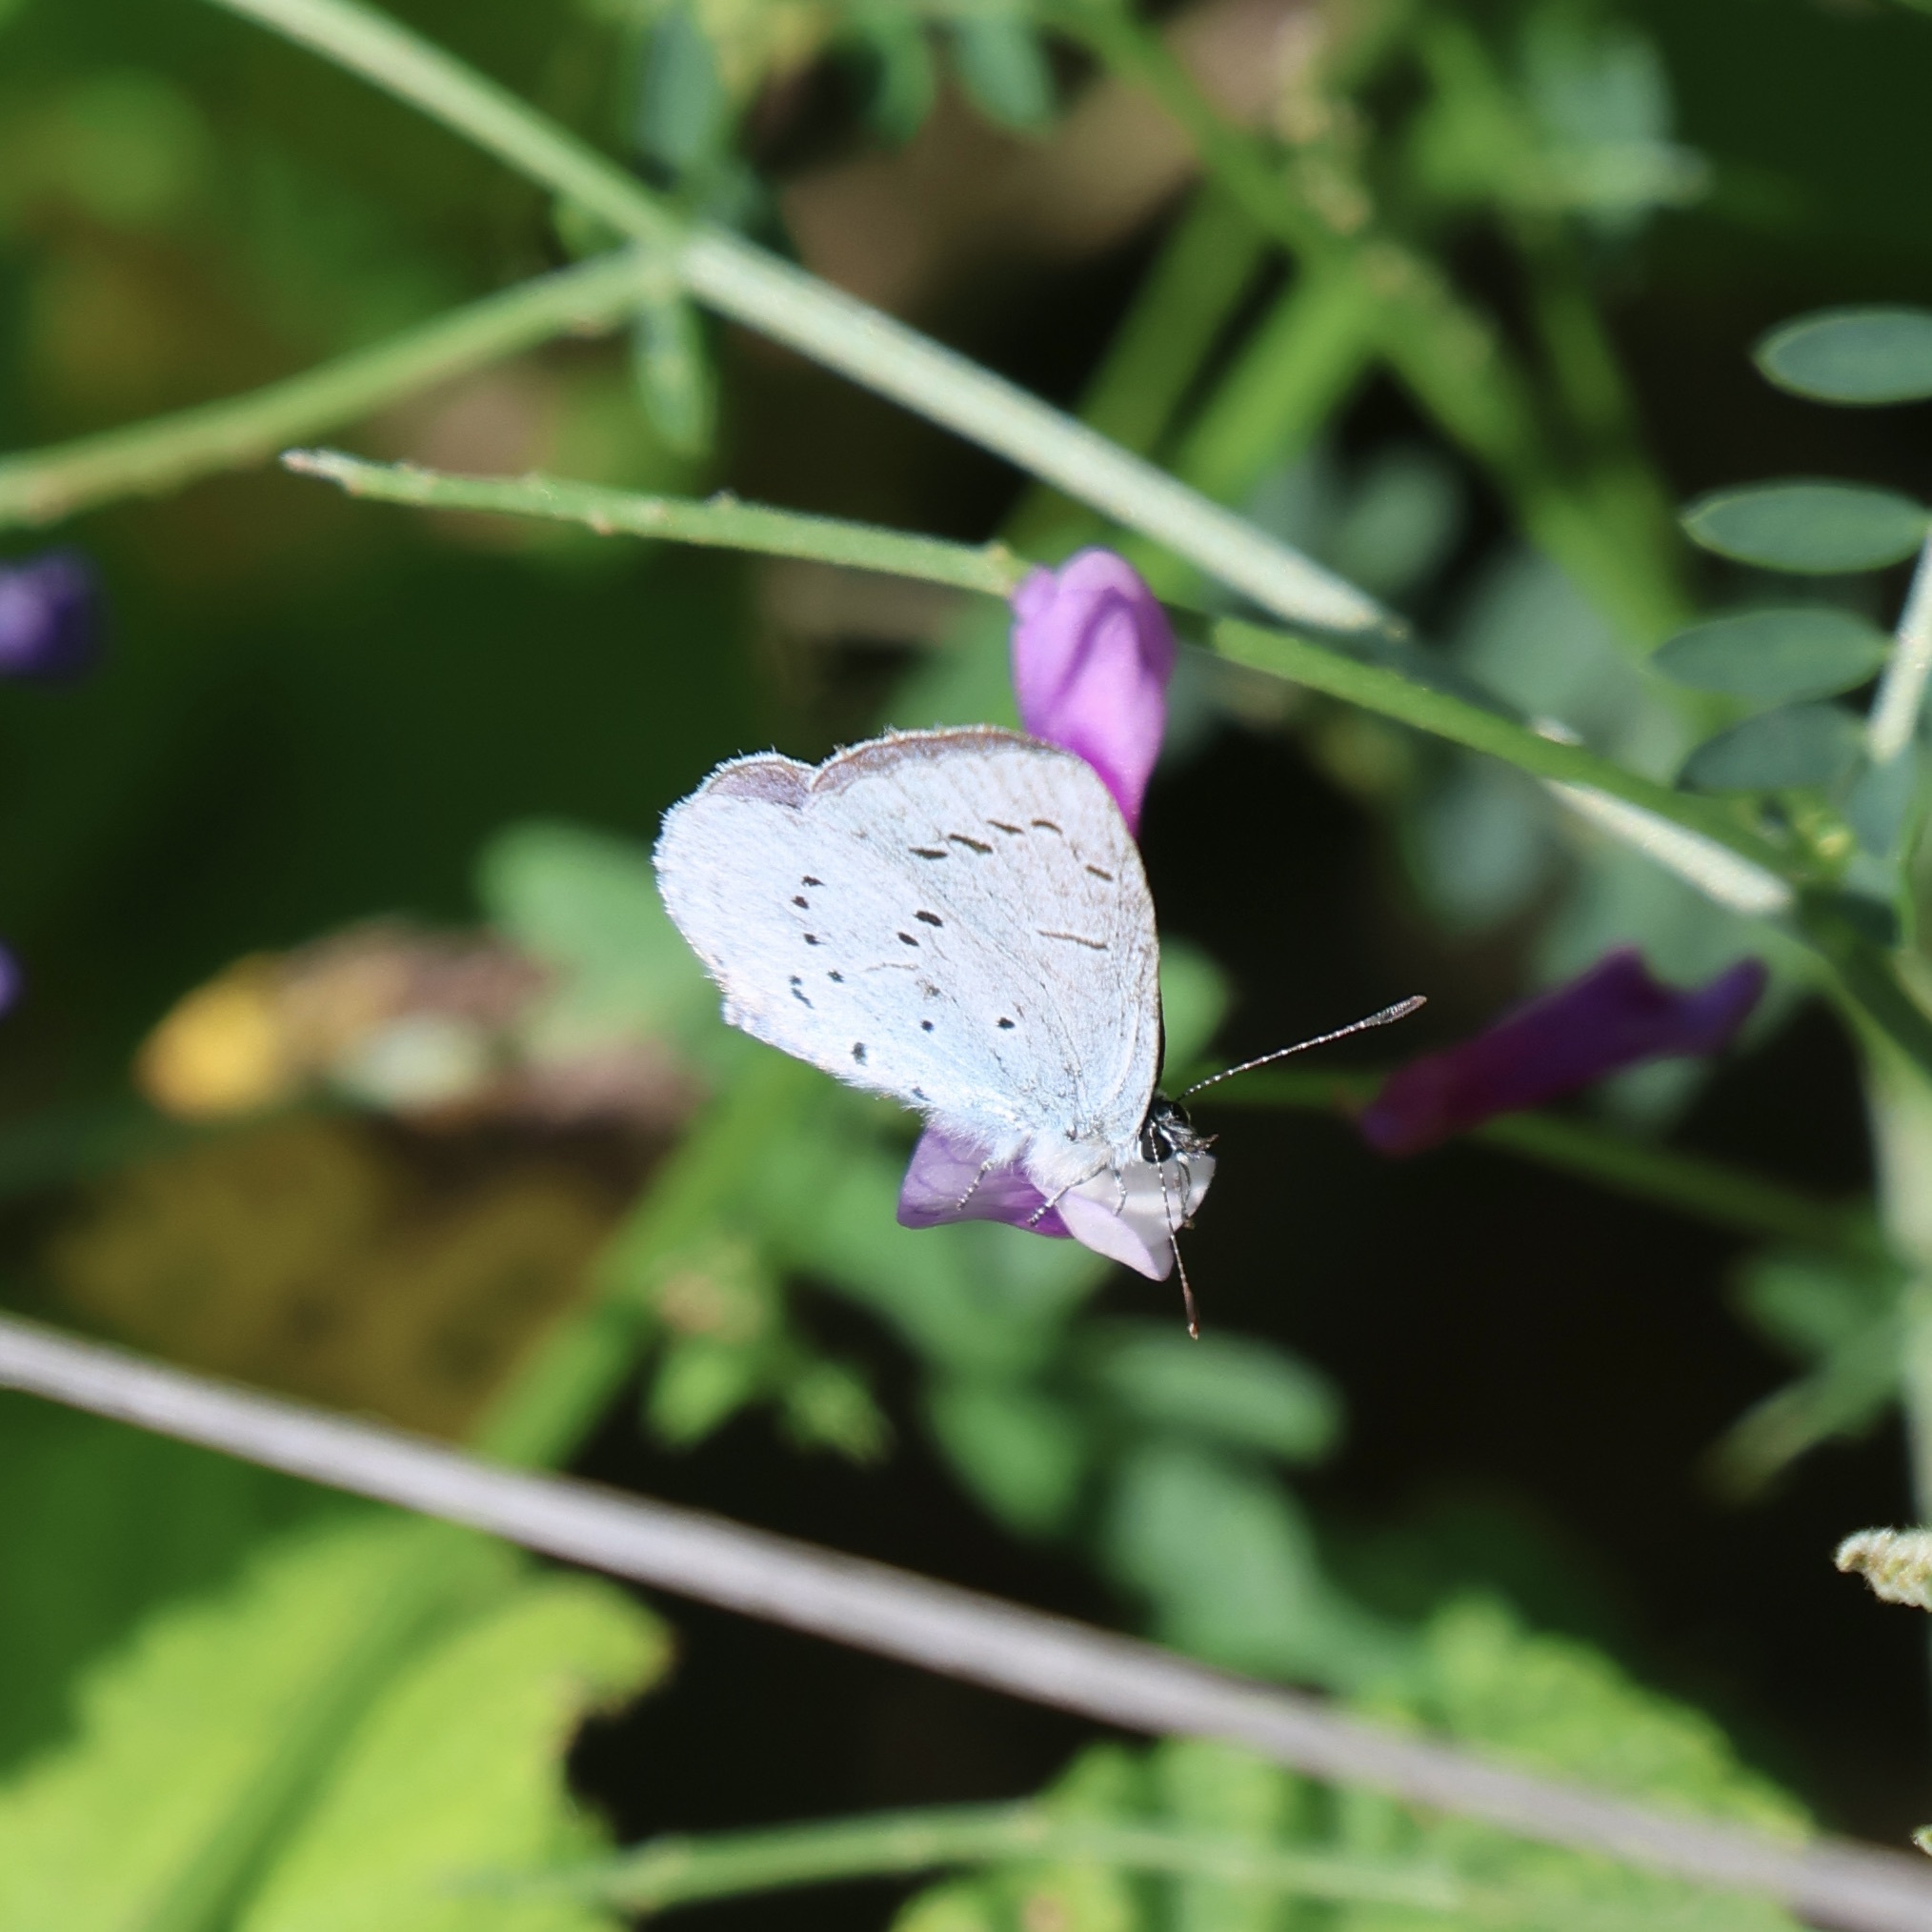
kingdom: Animalia
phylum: Arthropoda
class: Insecta
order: Lepidoptera
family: Lycaenidae
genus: Celastrina
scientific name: Celastrina argiolus
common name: Holly blue
